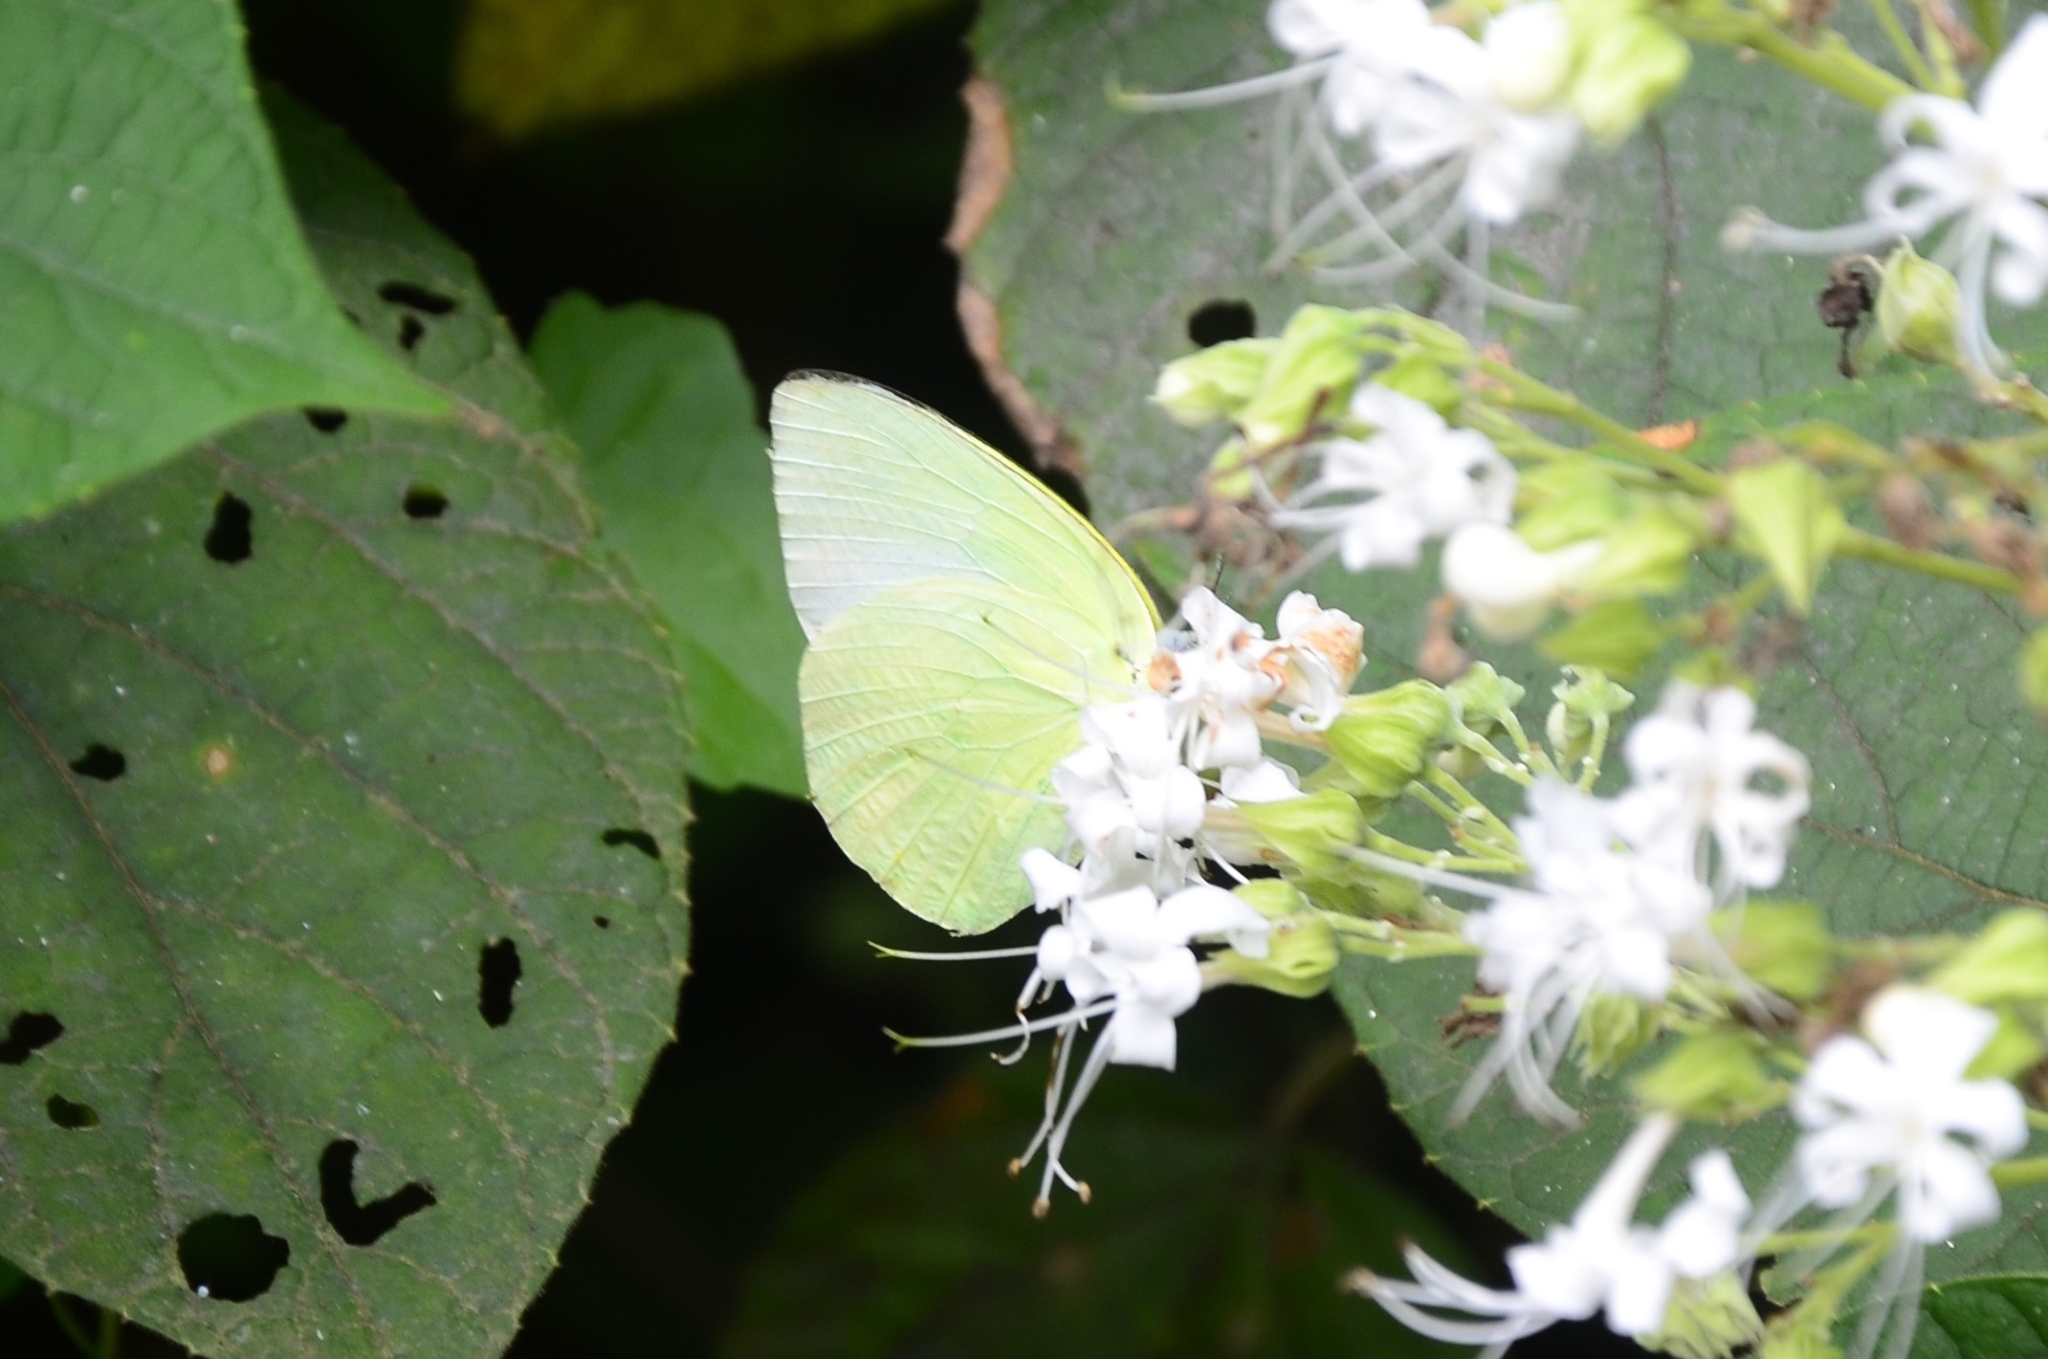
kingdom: Animalia
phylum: Arthropoda
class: Insecta
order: Lepidoptera
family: Pieridae
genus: Catopsilia
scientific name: Catopsilia pomona
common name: Common emigrant
